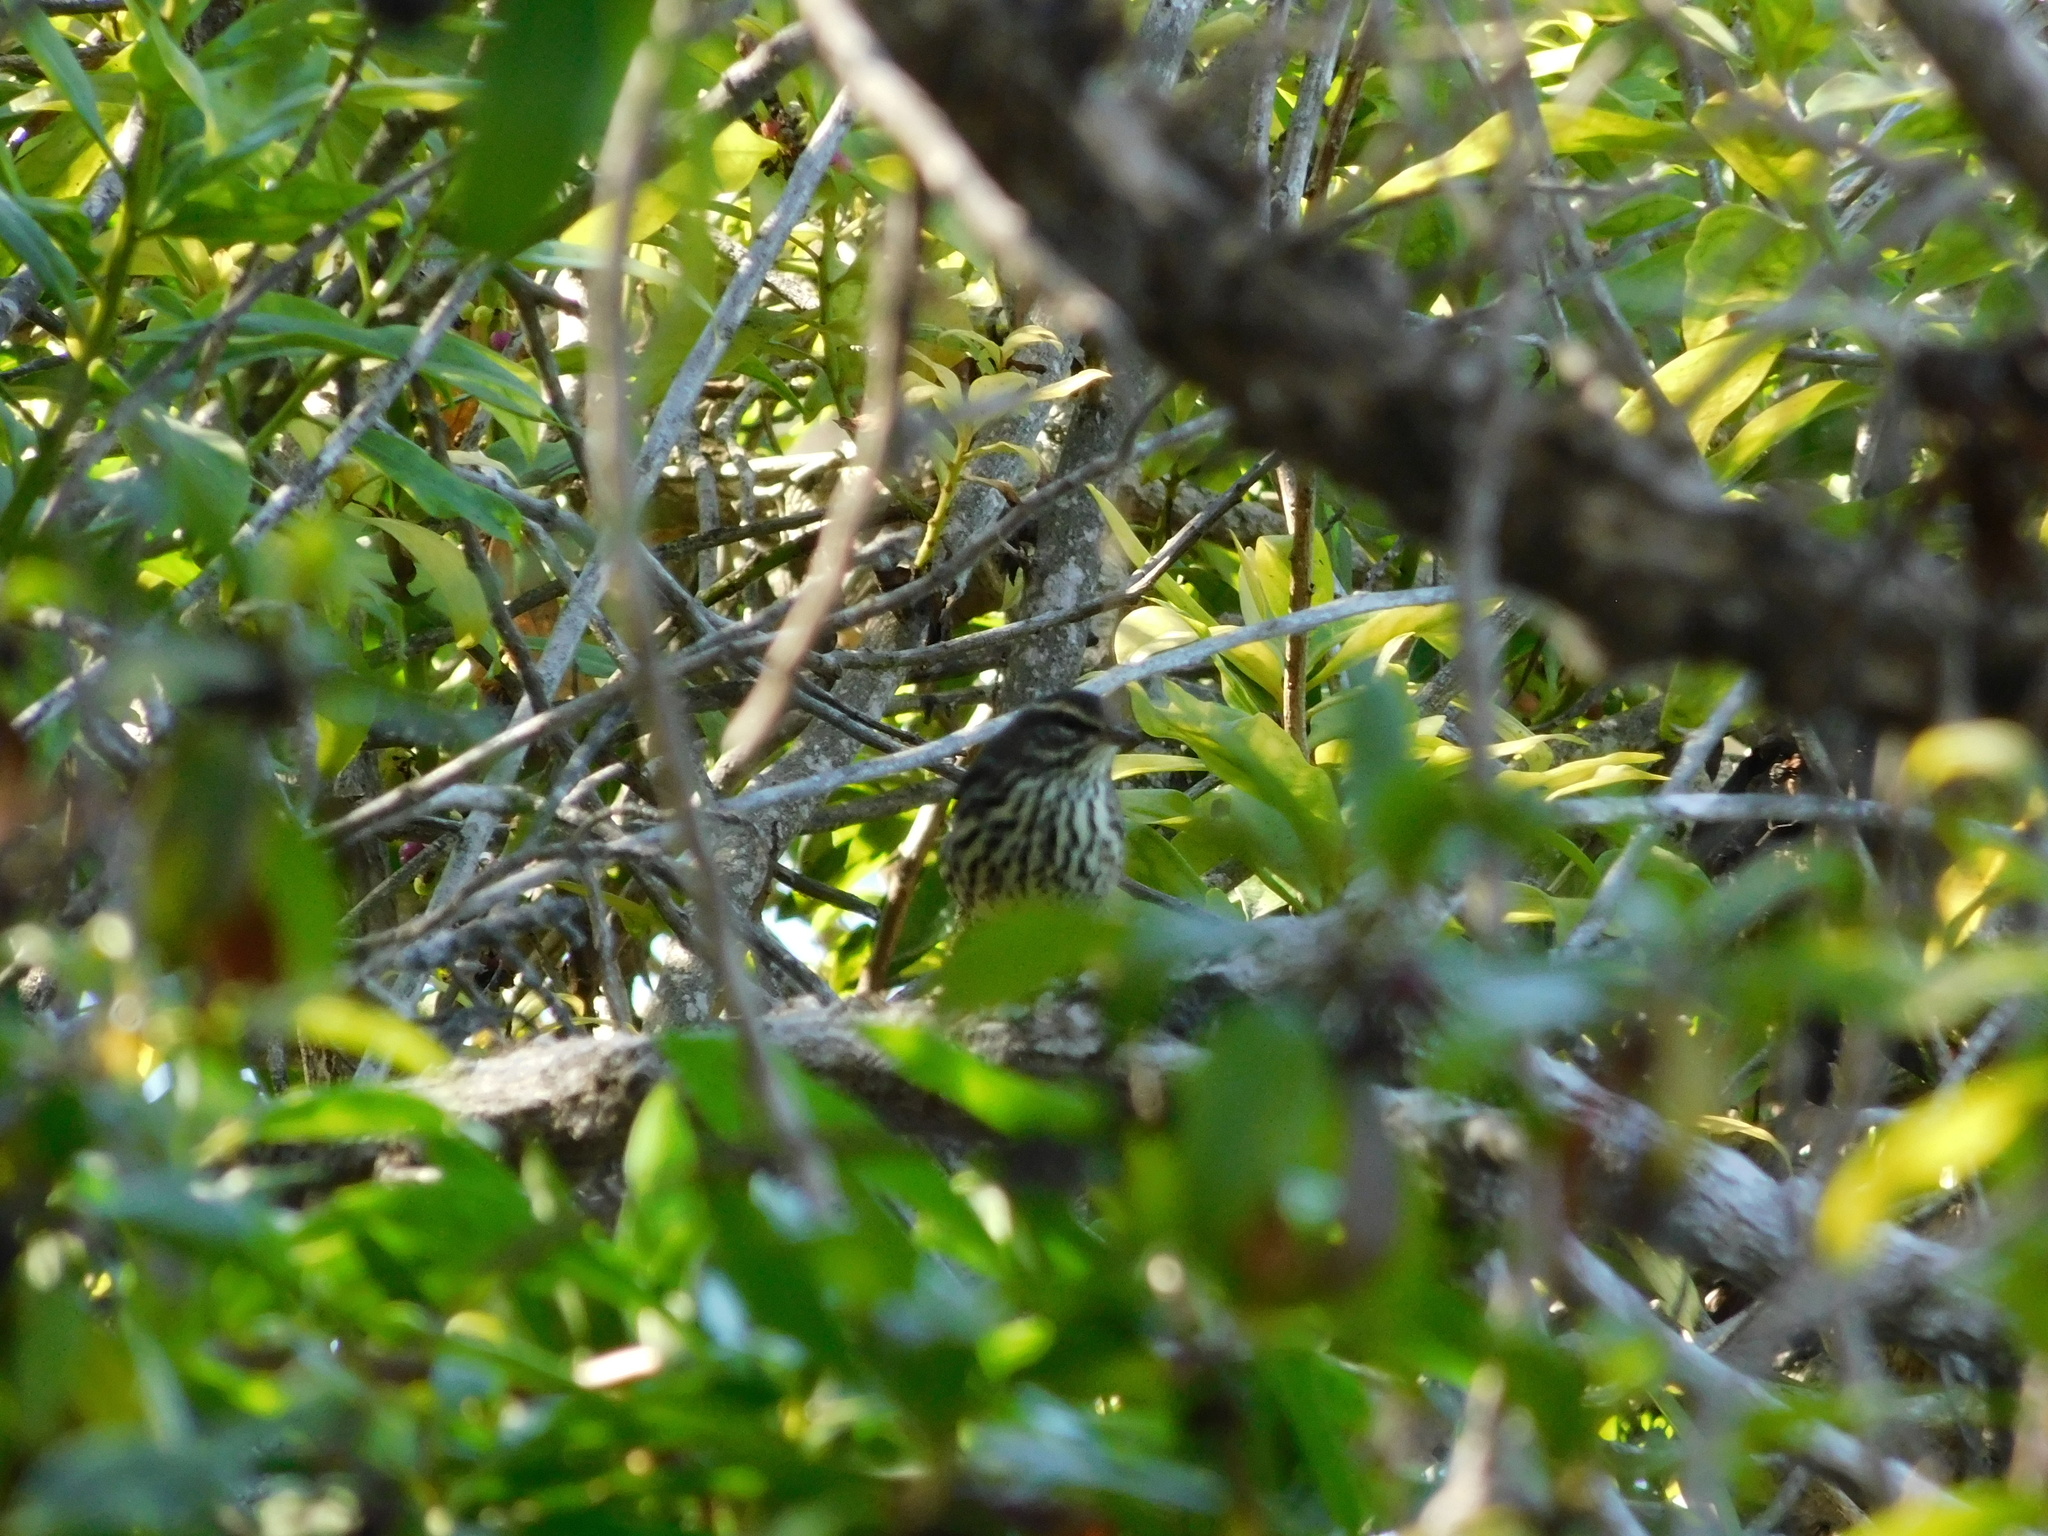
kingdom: Animalia
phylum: Chordata
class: Aves
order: Passeriformes
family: Parulidae
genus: Parkesia
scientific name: Parkesia noveboracensis
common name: Northern waterthrush
